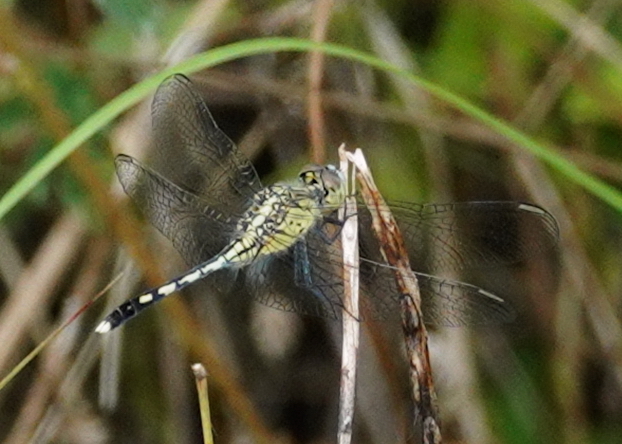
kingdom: Animalia
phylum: Arthropoda
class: Insecta
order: Odonata
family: Libellulidae
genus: Diplacodes
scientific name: Diplacodes trivialis
